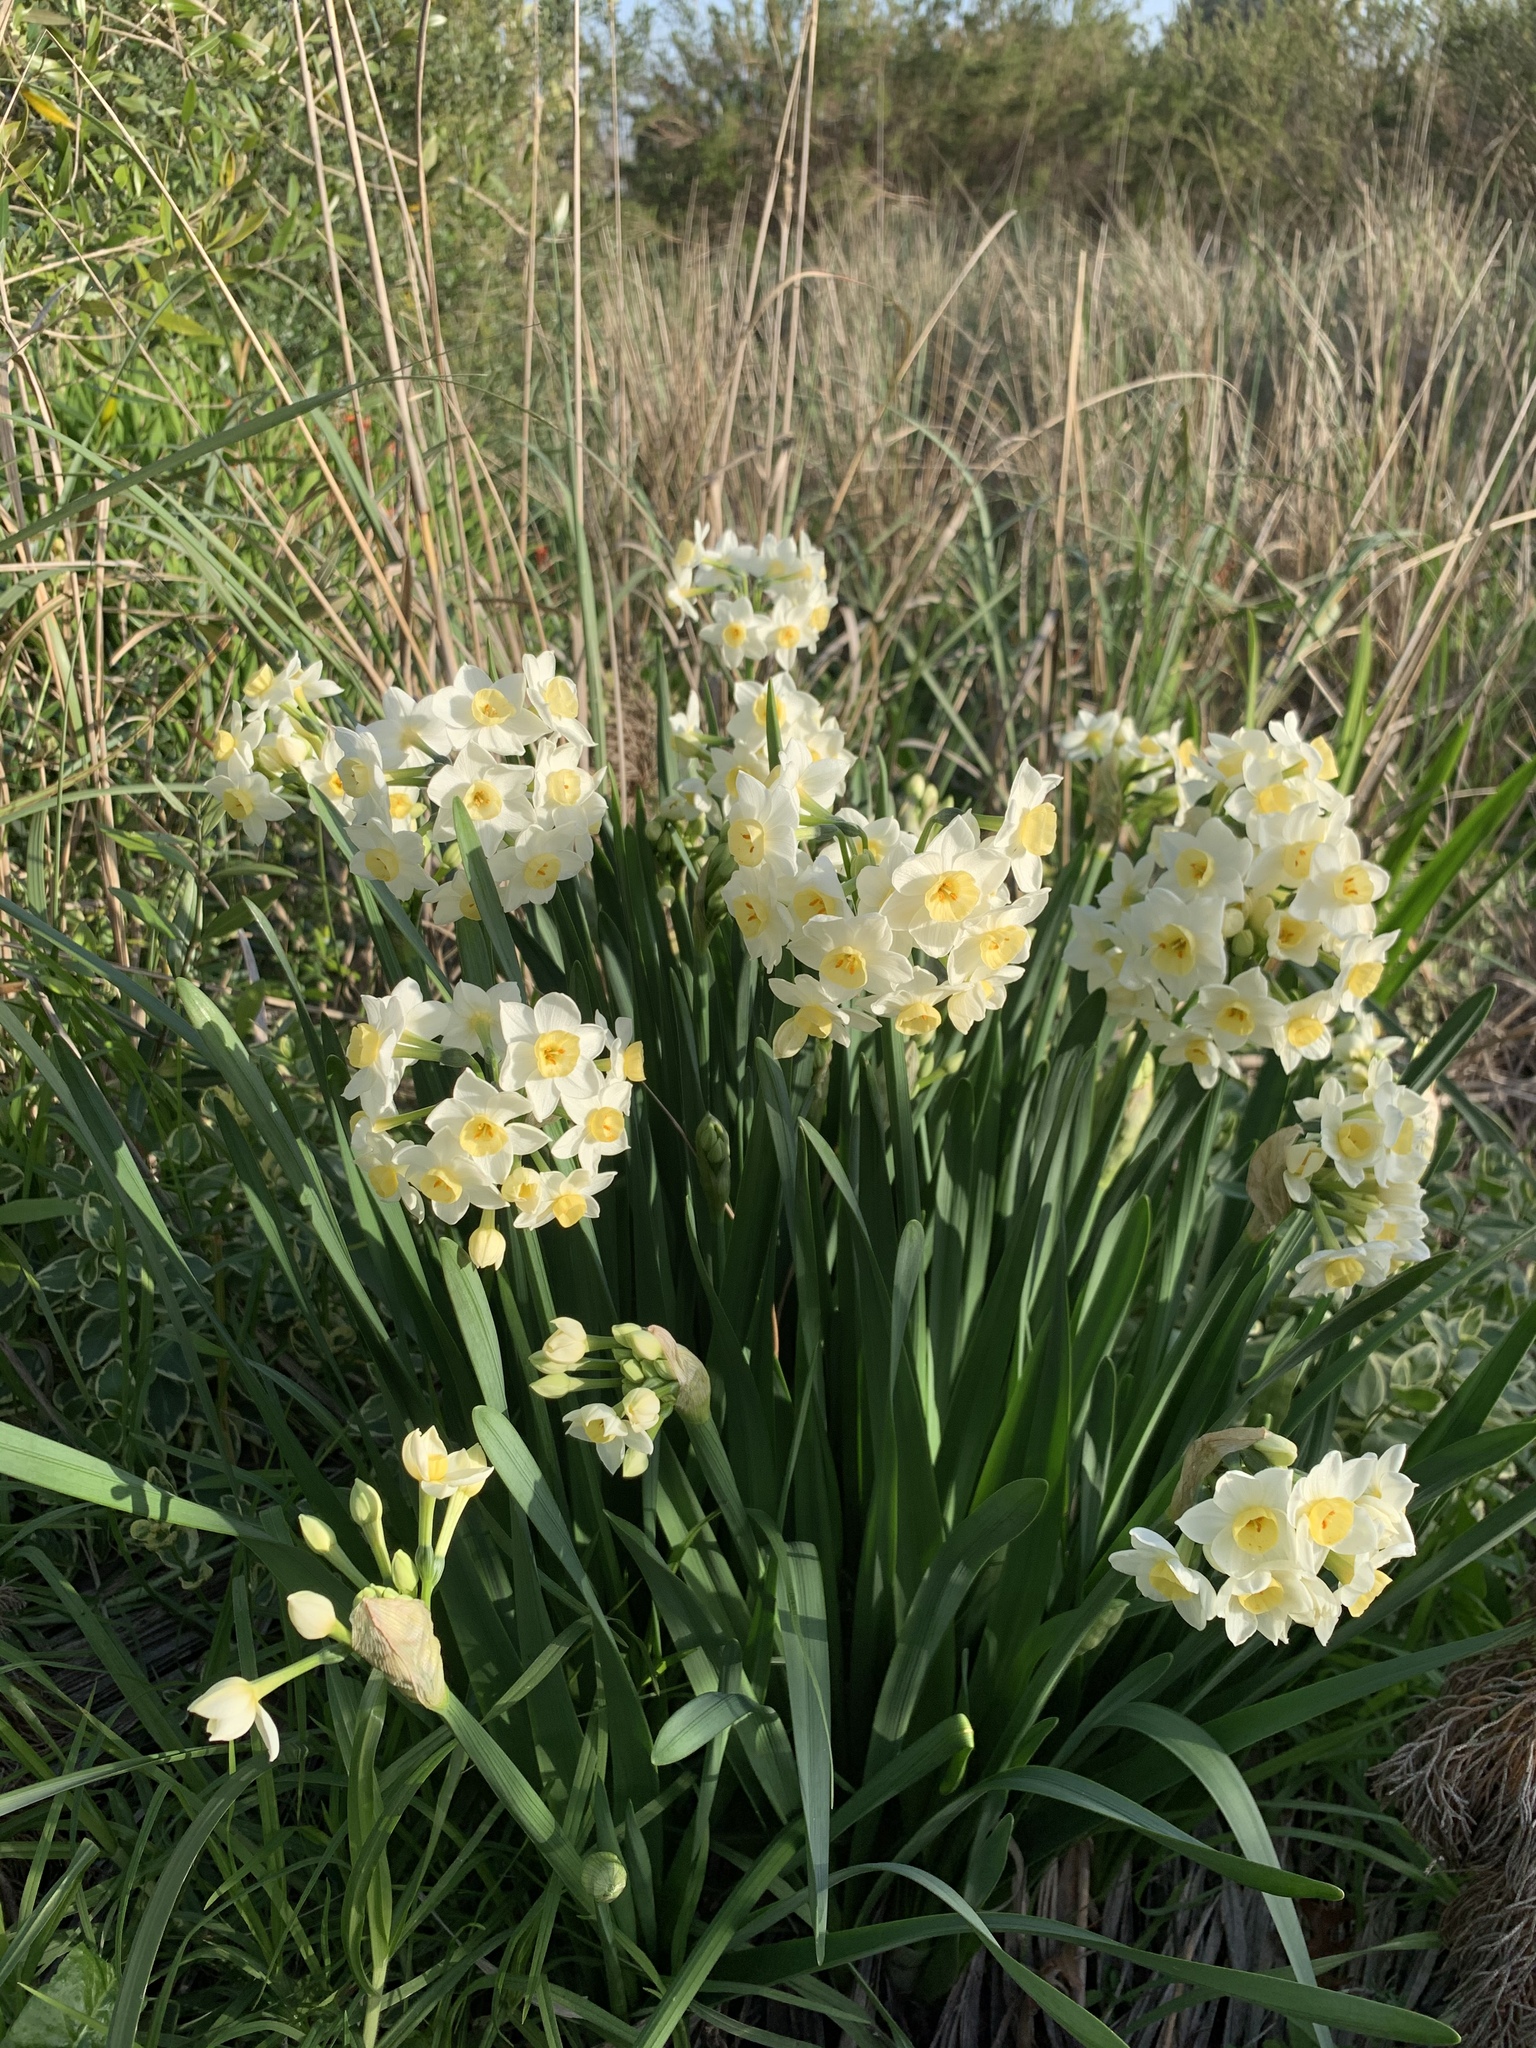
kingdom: Plantae
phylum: Tracheophyta
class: Liliopsida
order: Asparagales
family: Amaryllidaceae
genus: Narcissus
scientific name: Narcissus tazetta
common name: Bunch-flowered daffodil
